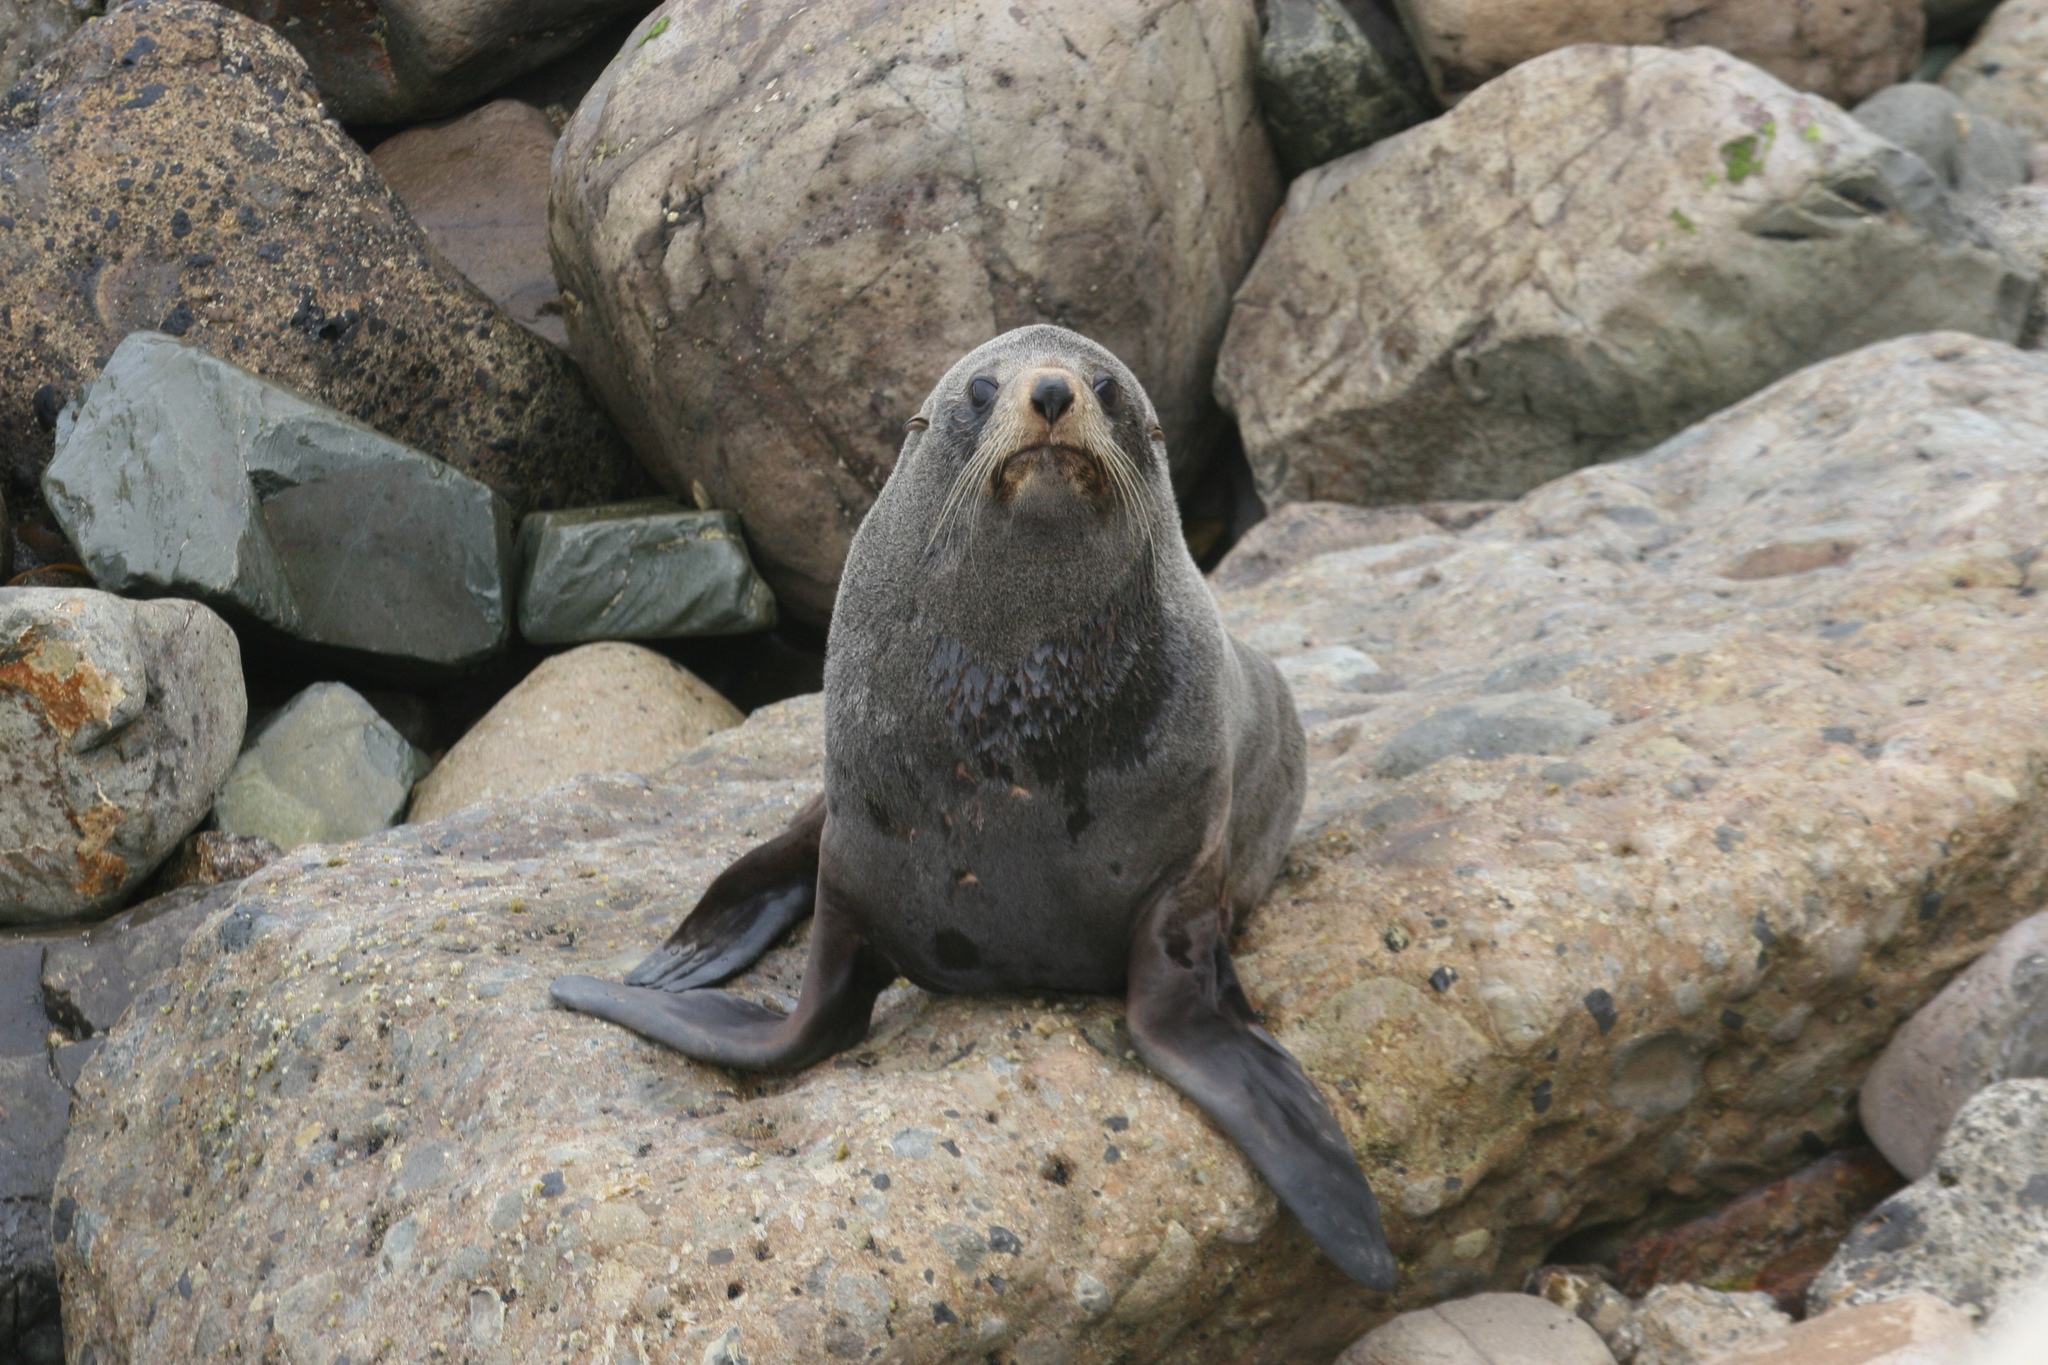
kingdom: Animalia
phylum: Chordata
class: Mammalia
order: Carnivora
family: Otariidae
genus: Arctocephalus
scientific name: Arctocephalus forsteri
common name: New zealand fur seal
